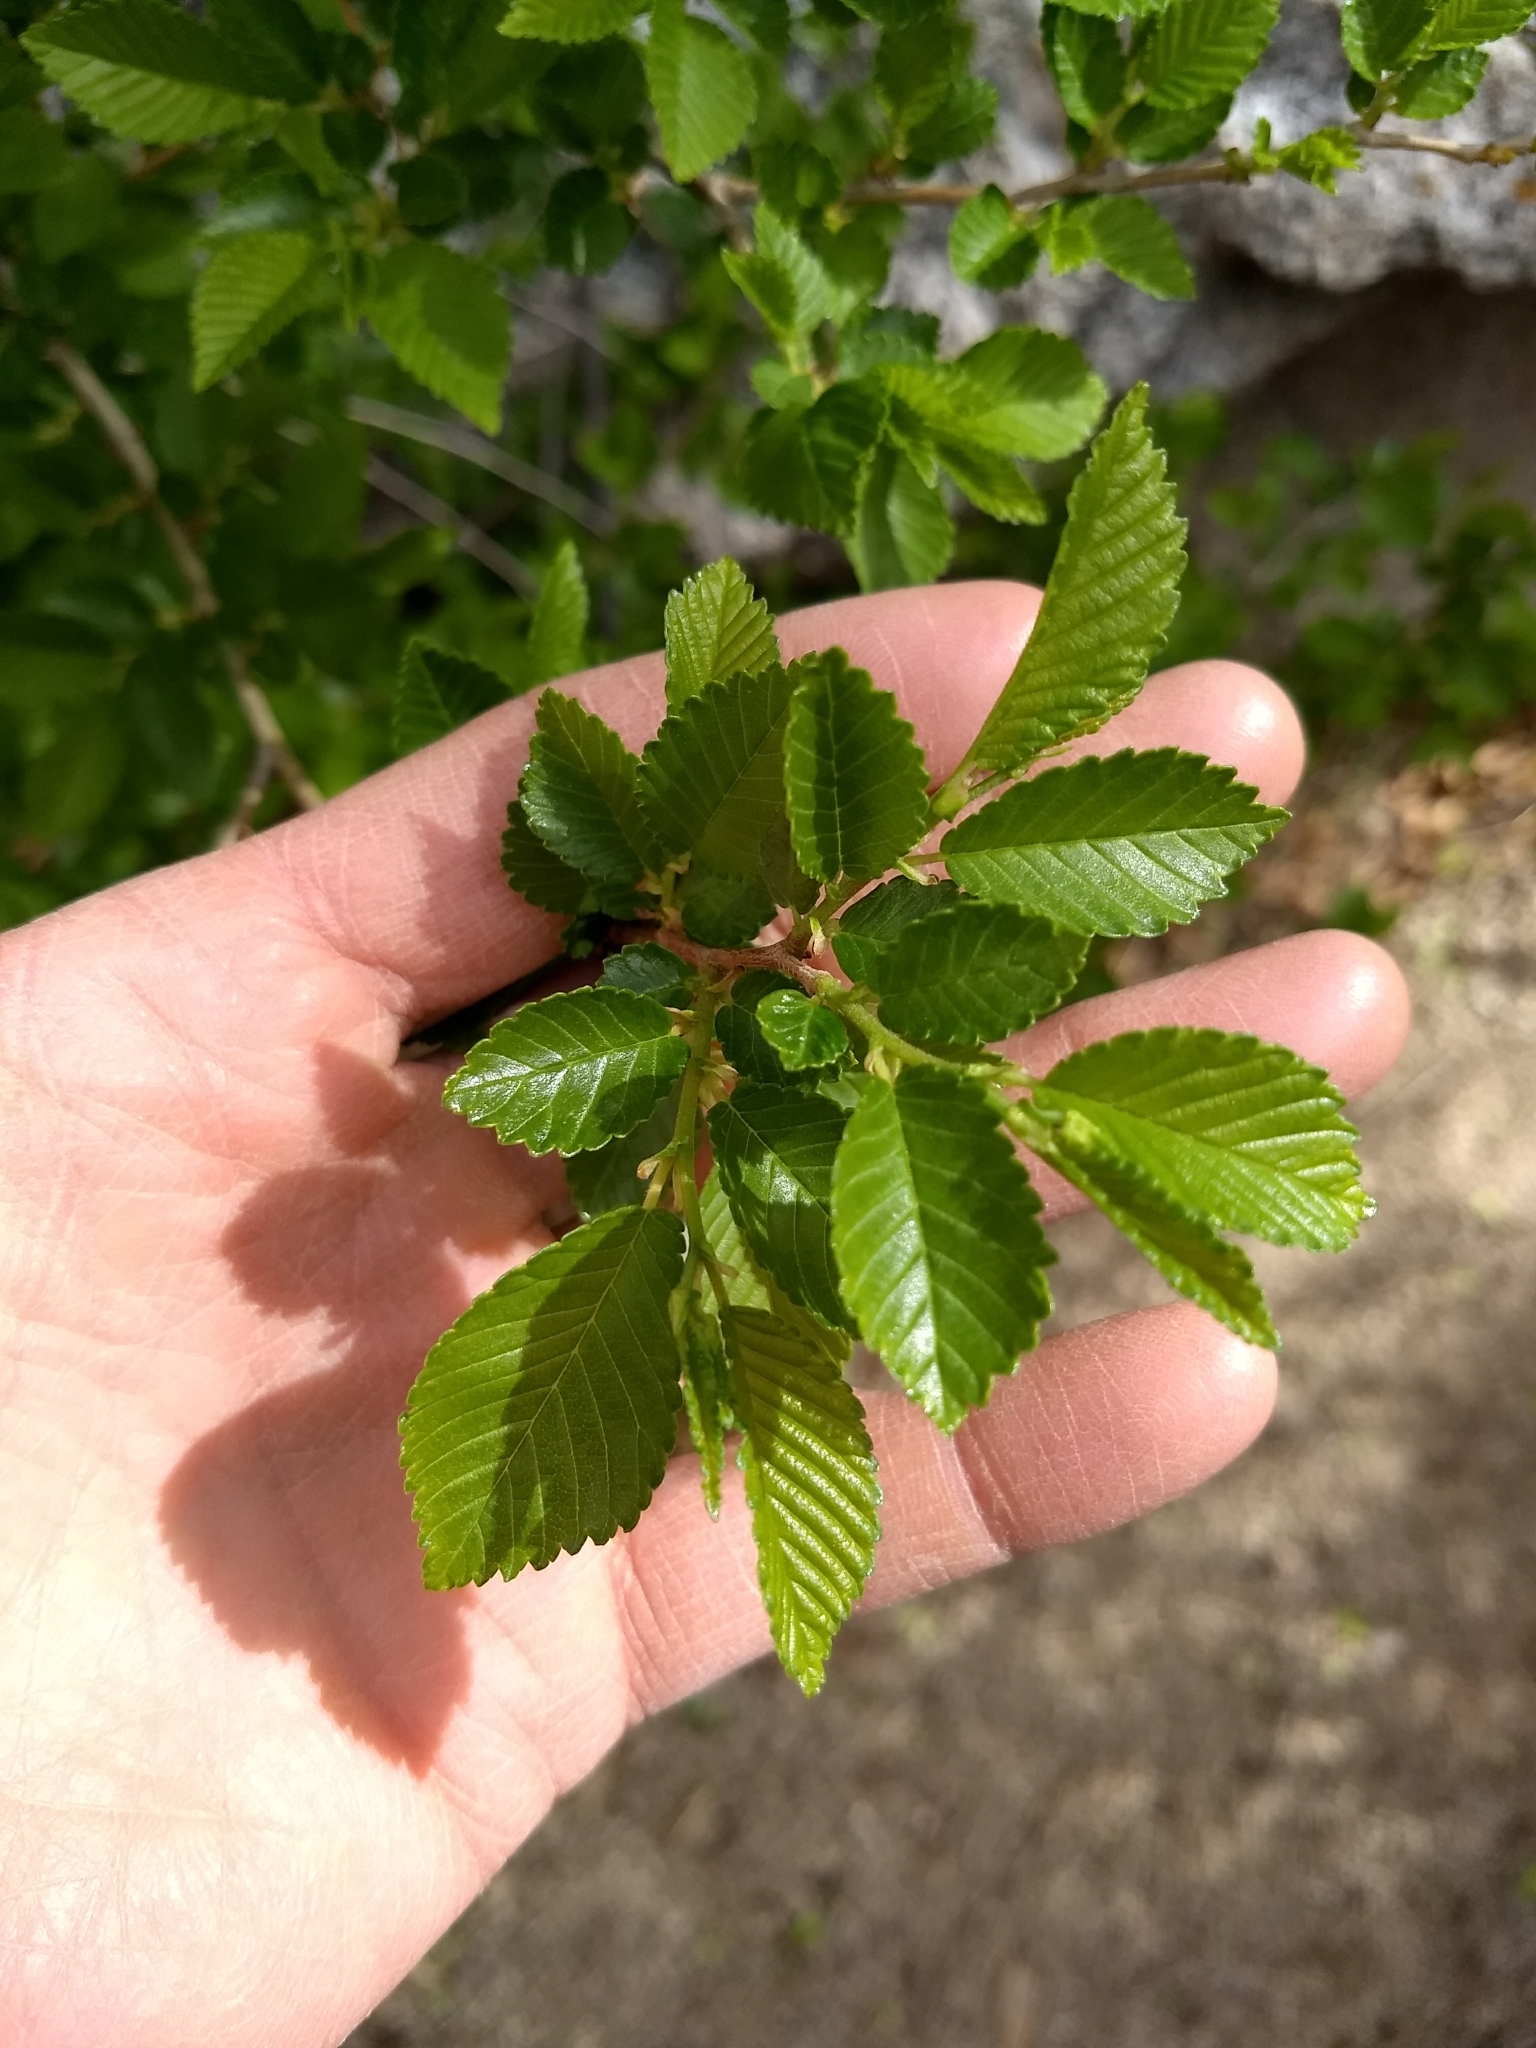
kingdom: Plantae
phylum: Tracheophyta
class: Magnoliopsida
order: Rosales
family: Ulmaceae
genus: Ulmus
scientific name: Ulmus pumila
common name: Siberian elm
